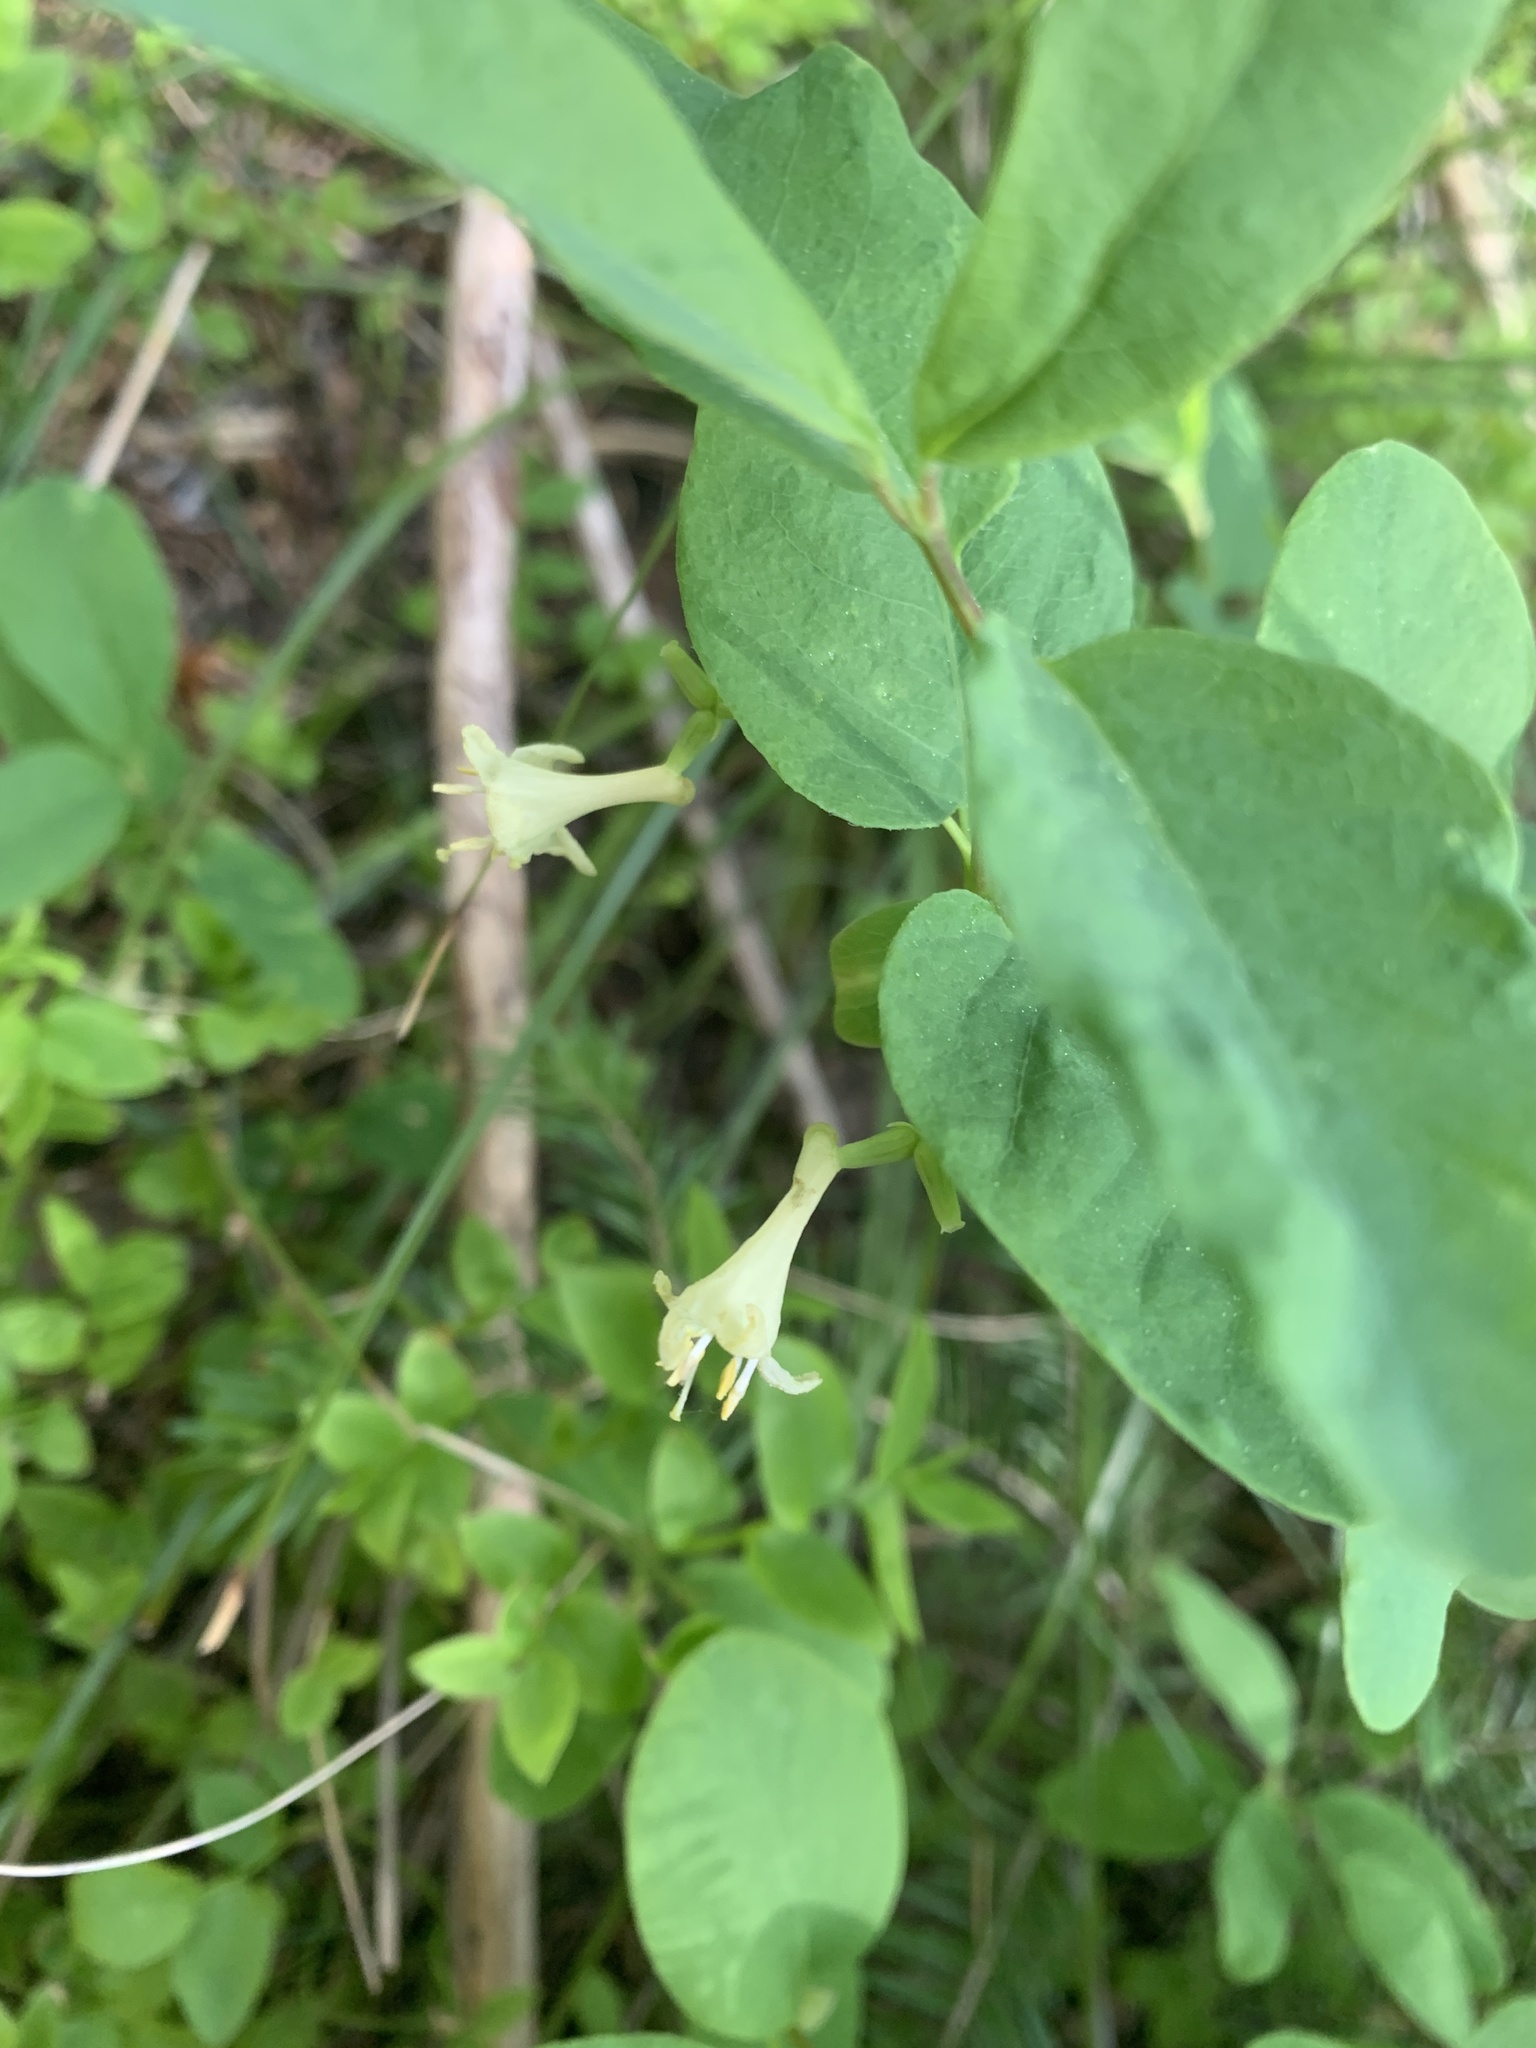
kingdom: Plantae
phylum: Tracheophyta
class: Magnoliopsida
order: Dipsacales
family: Caprifoliaceae
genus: Lonicera
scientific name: Lonicera utahensis
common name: Utah honeysuckle
